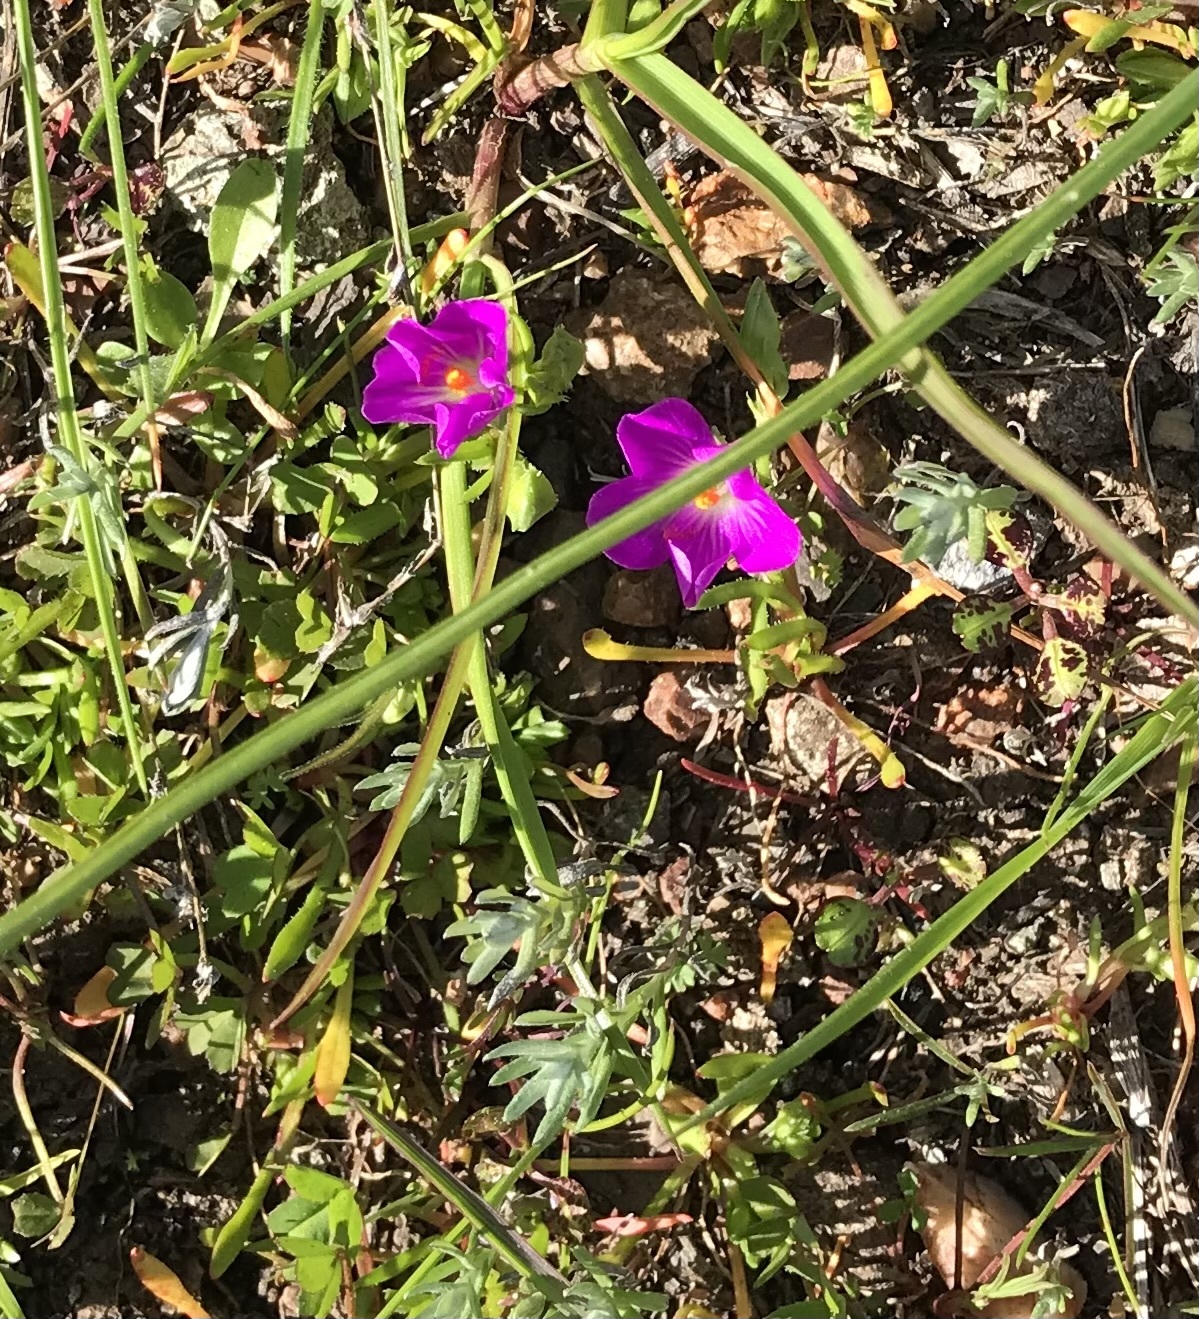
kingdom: Plantae
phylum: Tracheophyta
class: Magnoliopsida
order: Caryophyllales
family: Montiaceae
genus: Calandrinia
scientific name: Calandrinia menziesii
